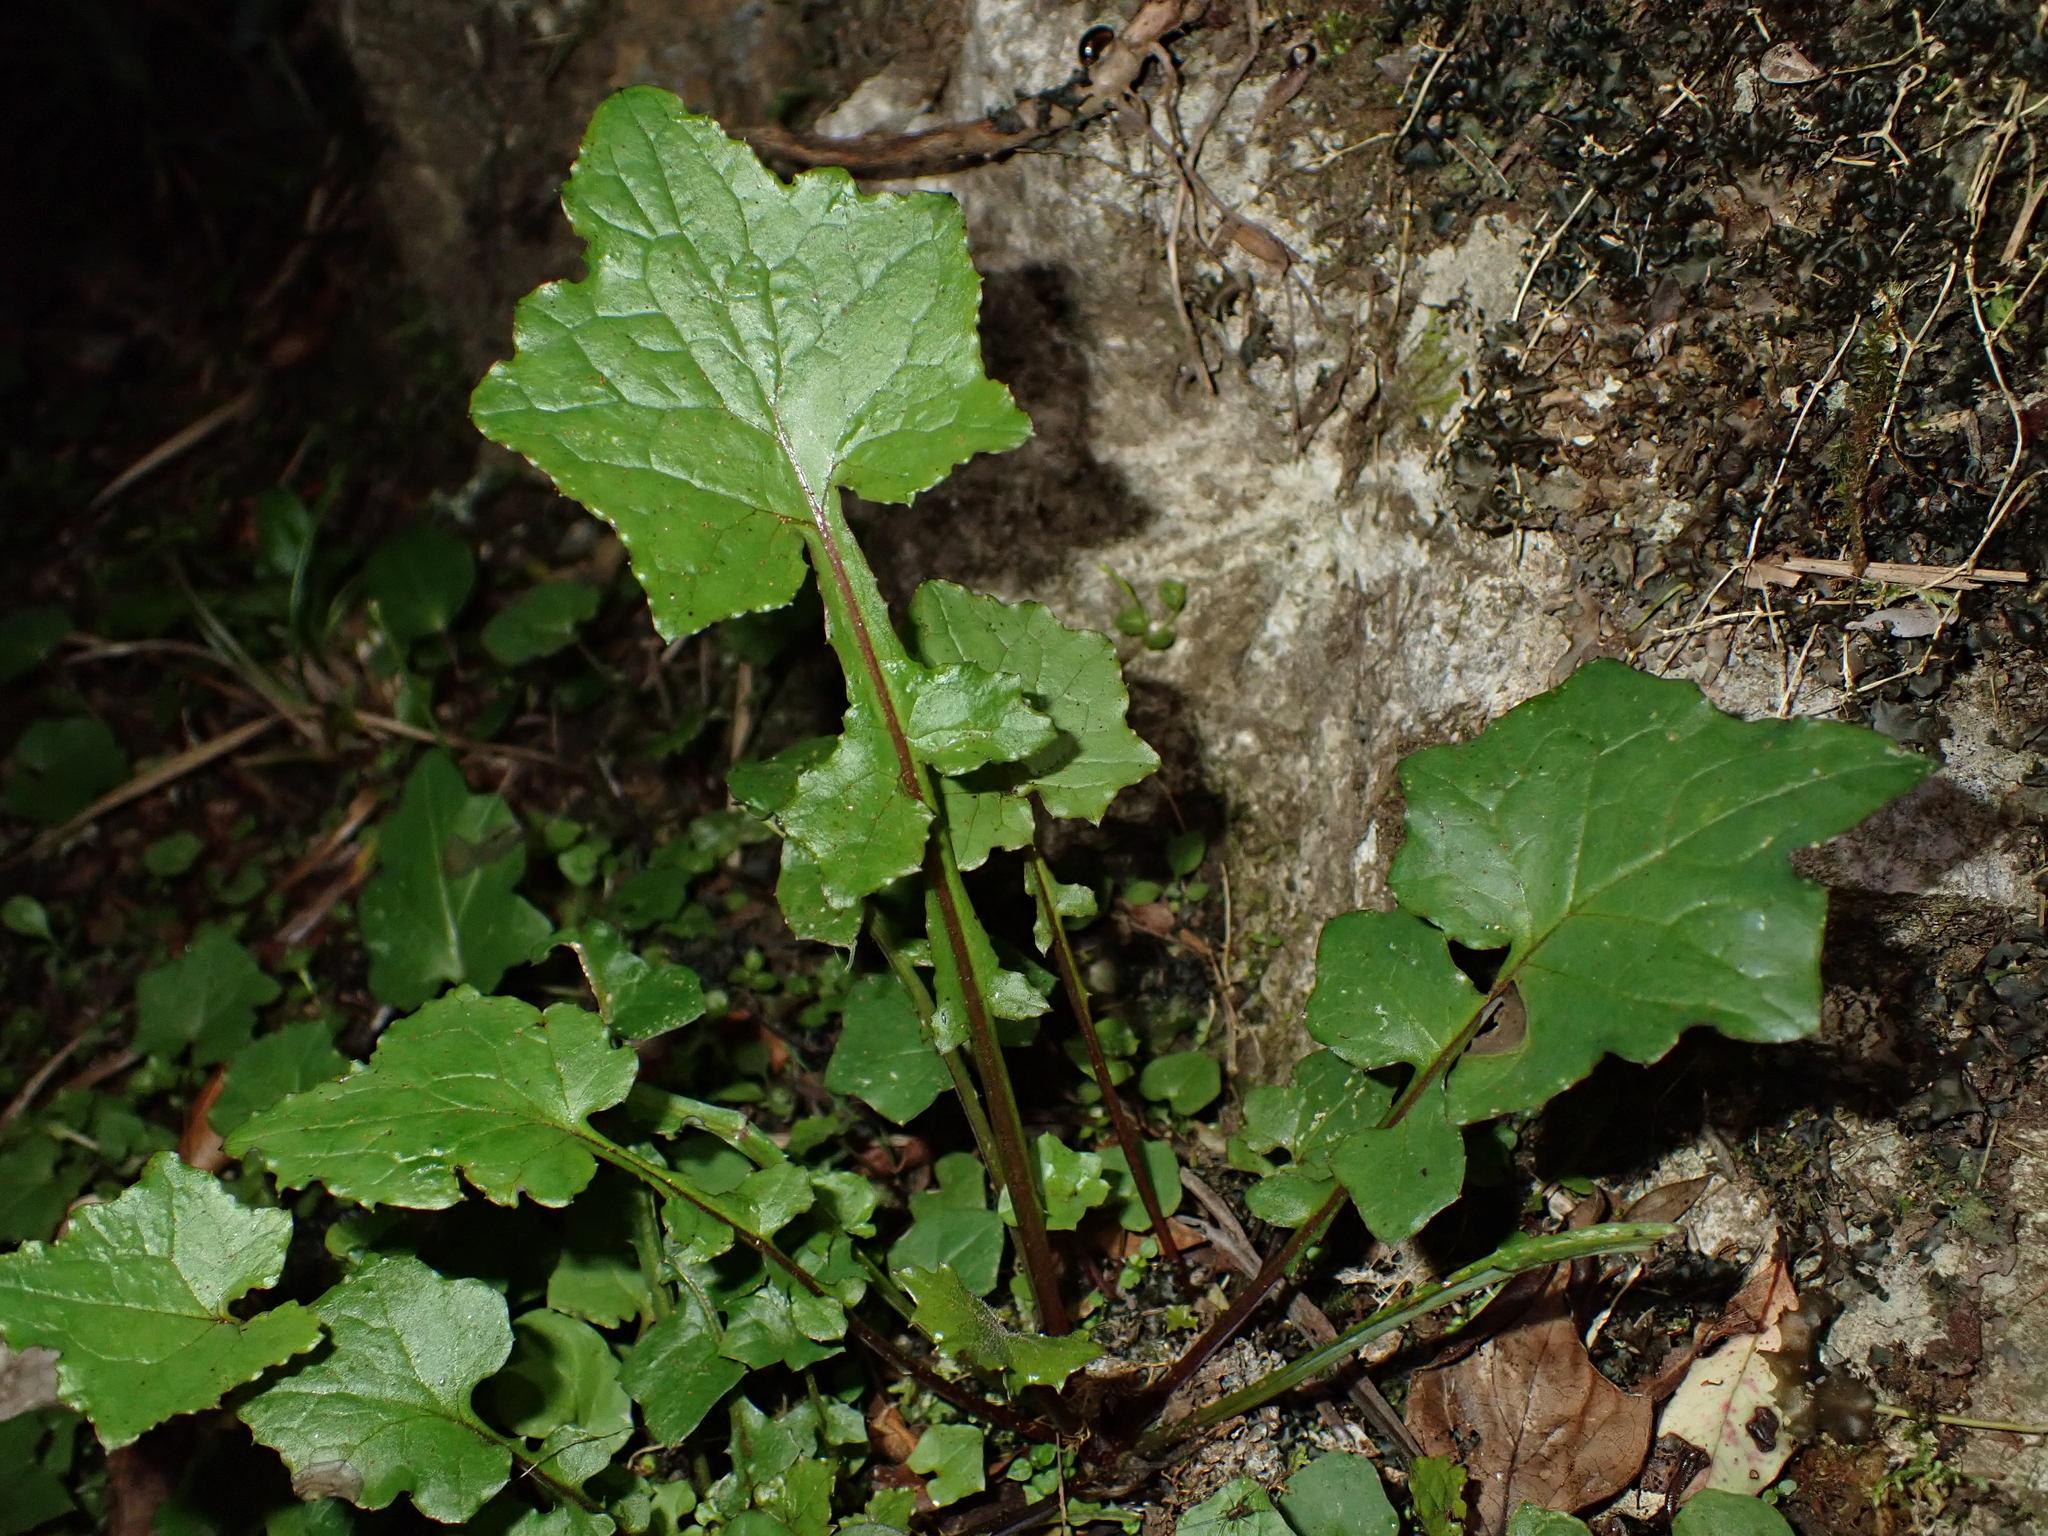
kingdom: Plantae
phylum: Tracheophyta
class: Magnoliopsida
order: Asterales
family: Asteraceae
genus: Mycelis
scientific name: Mycelis muralis
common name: Wall lettuce
